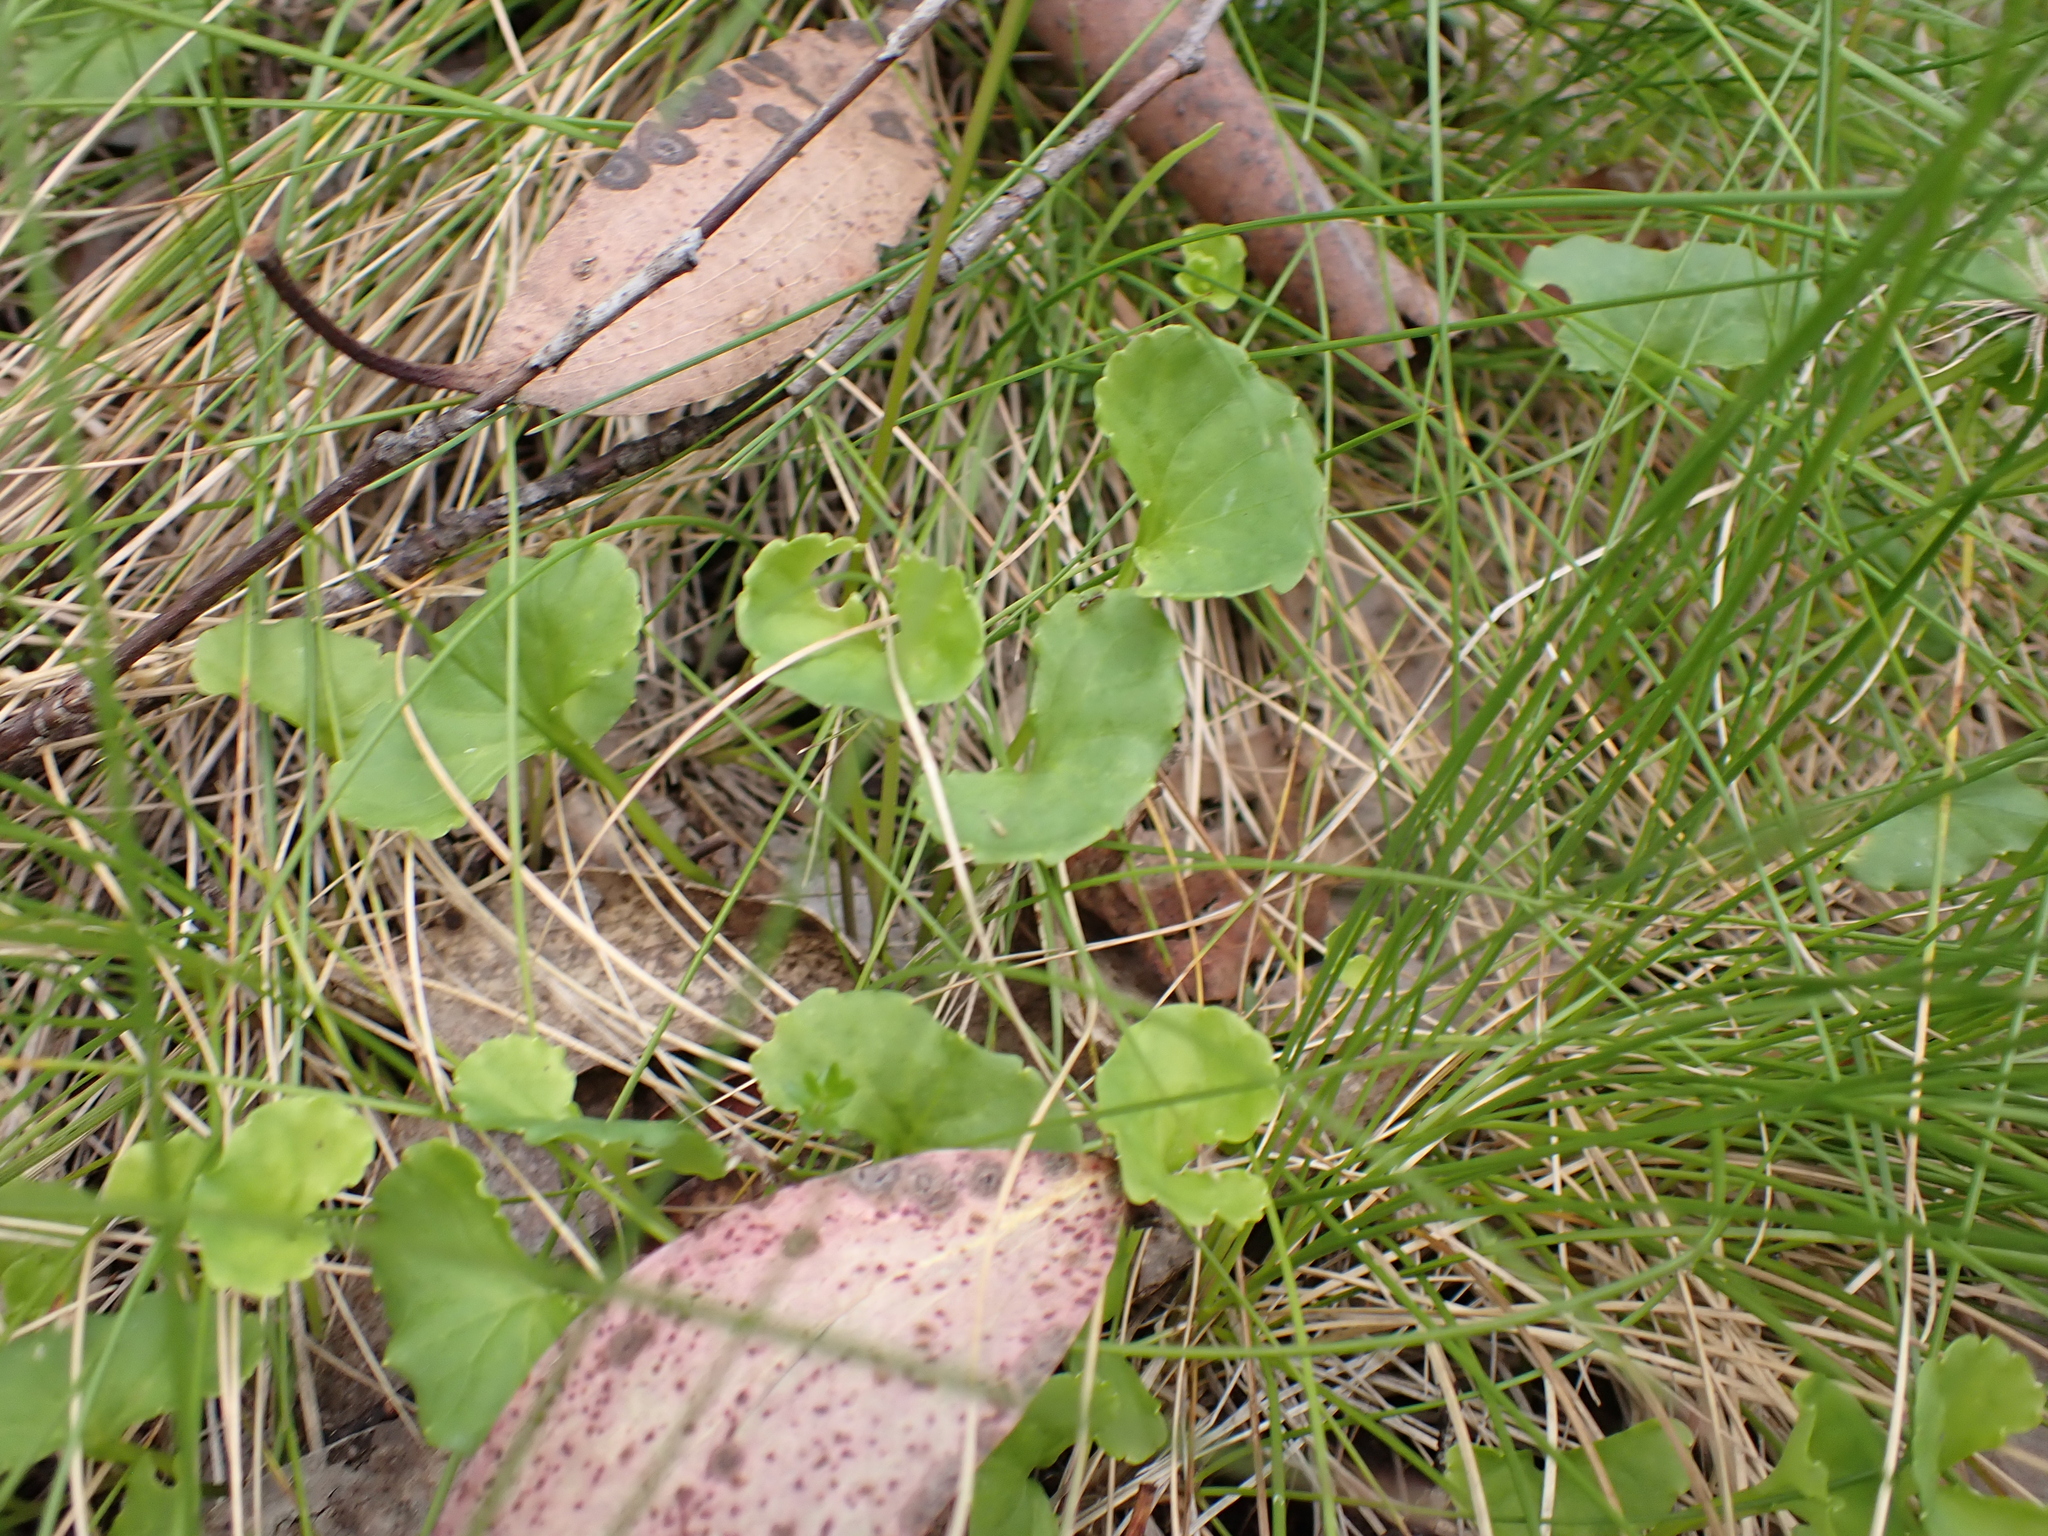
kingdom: Plantae
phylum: Tracheophyta
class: Magnoliopsida
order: Malpighiales
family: Violaceae
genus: Viola
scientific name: Viola eminens
